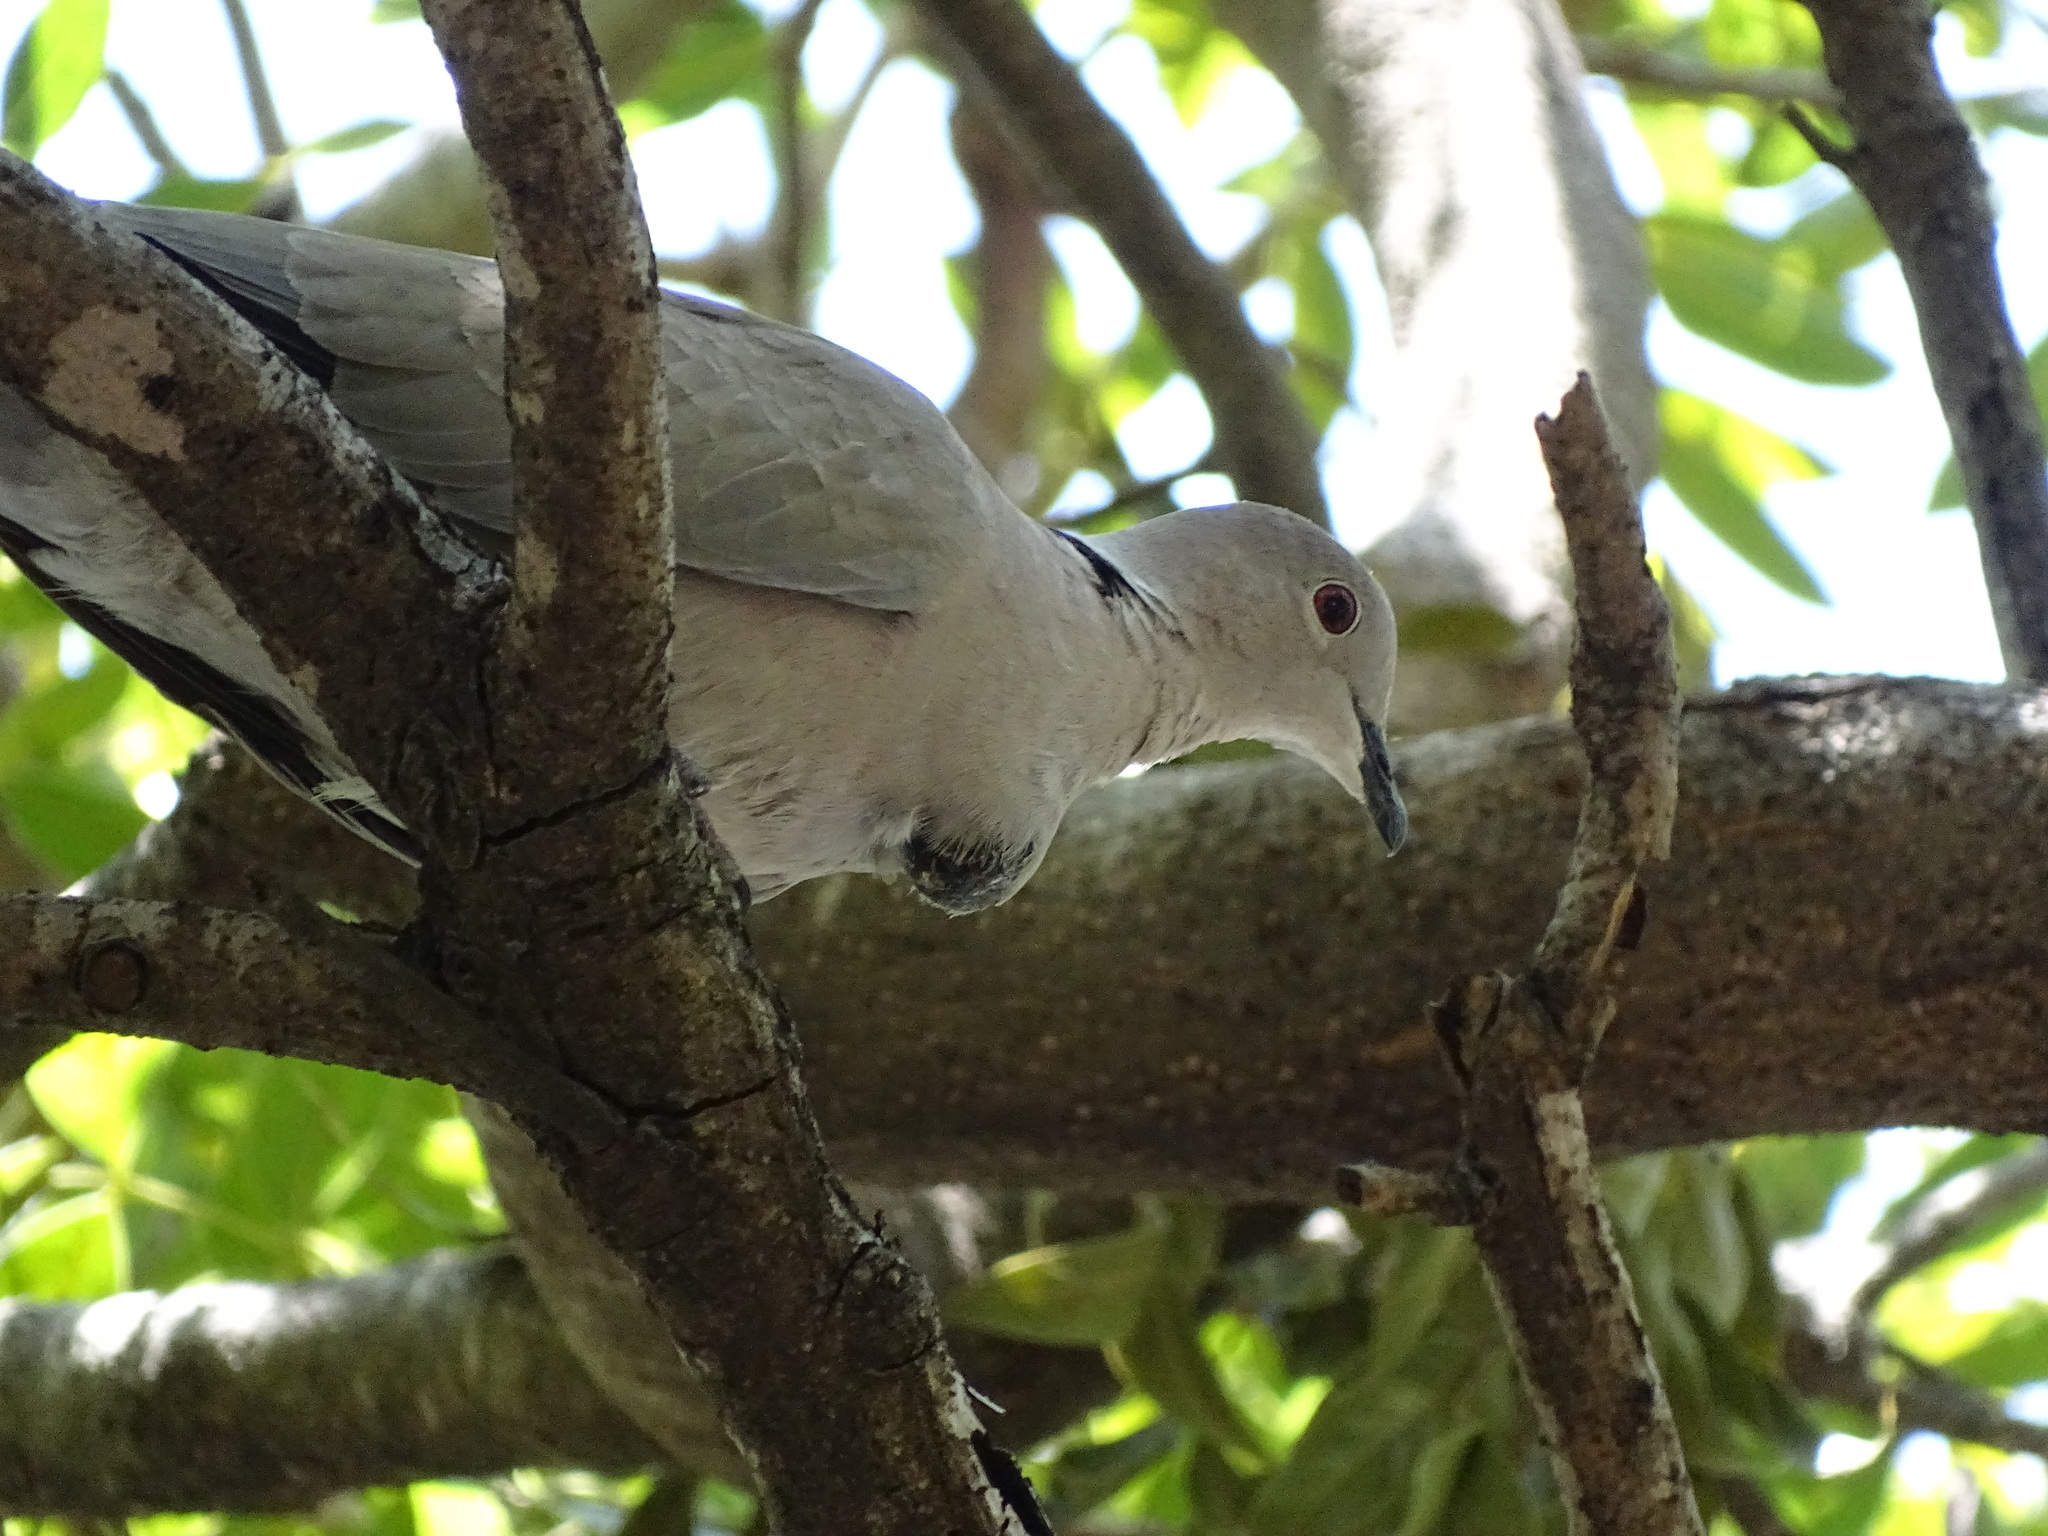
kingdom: Animalia
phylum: Chordata
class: Aves
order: Columbiformes
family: Columbidae
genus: Streptopelia
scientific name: Streptopelia decaocto
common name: Eurasian collared dove
